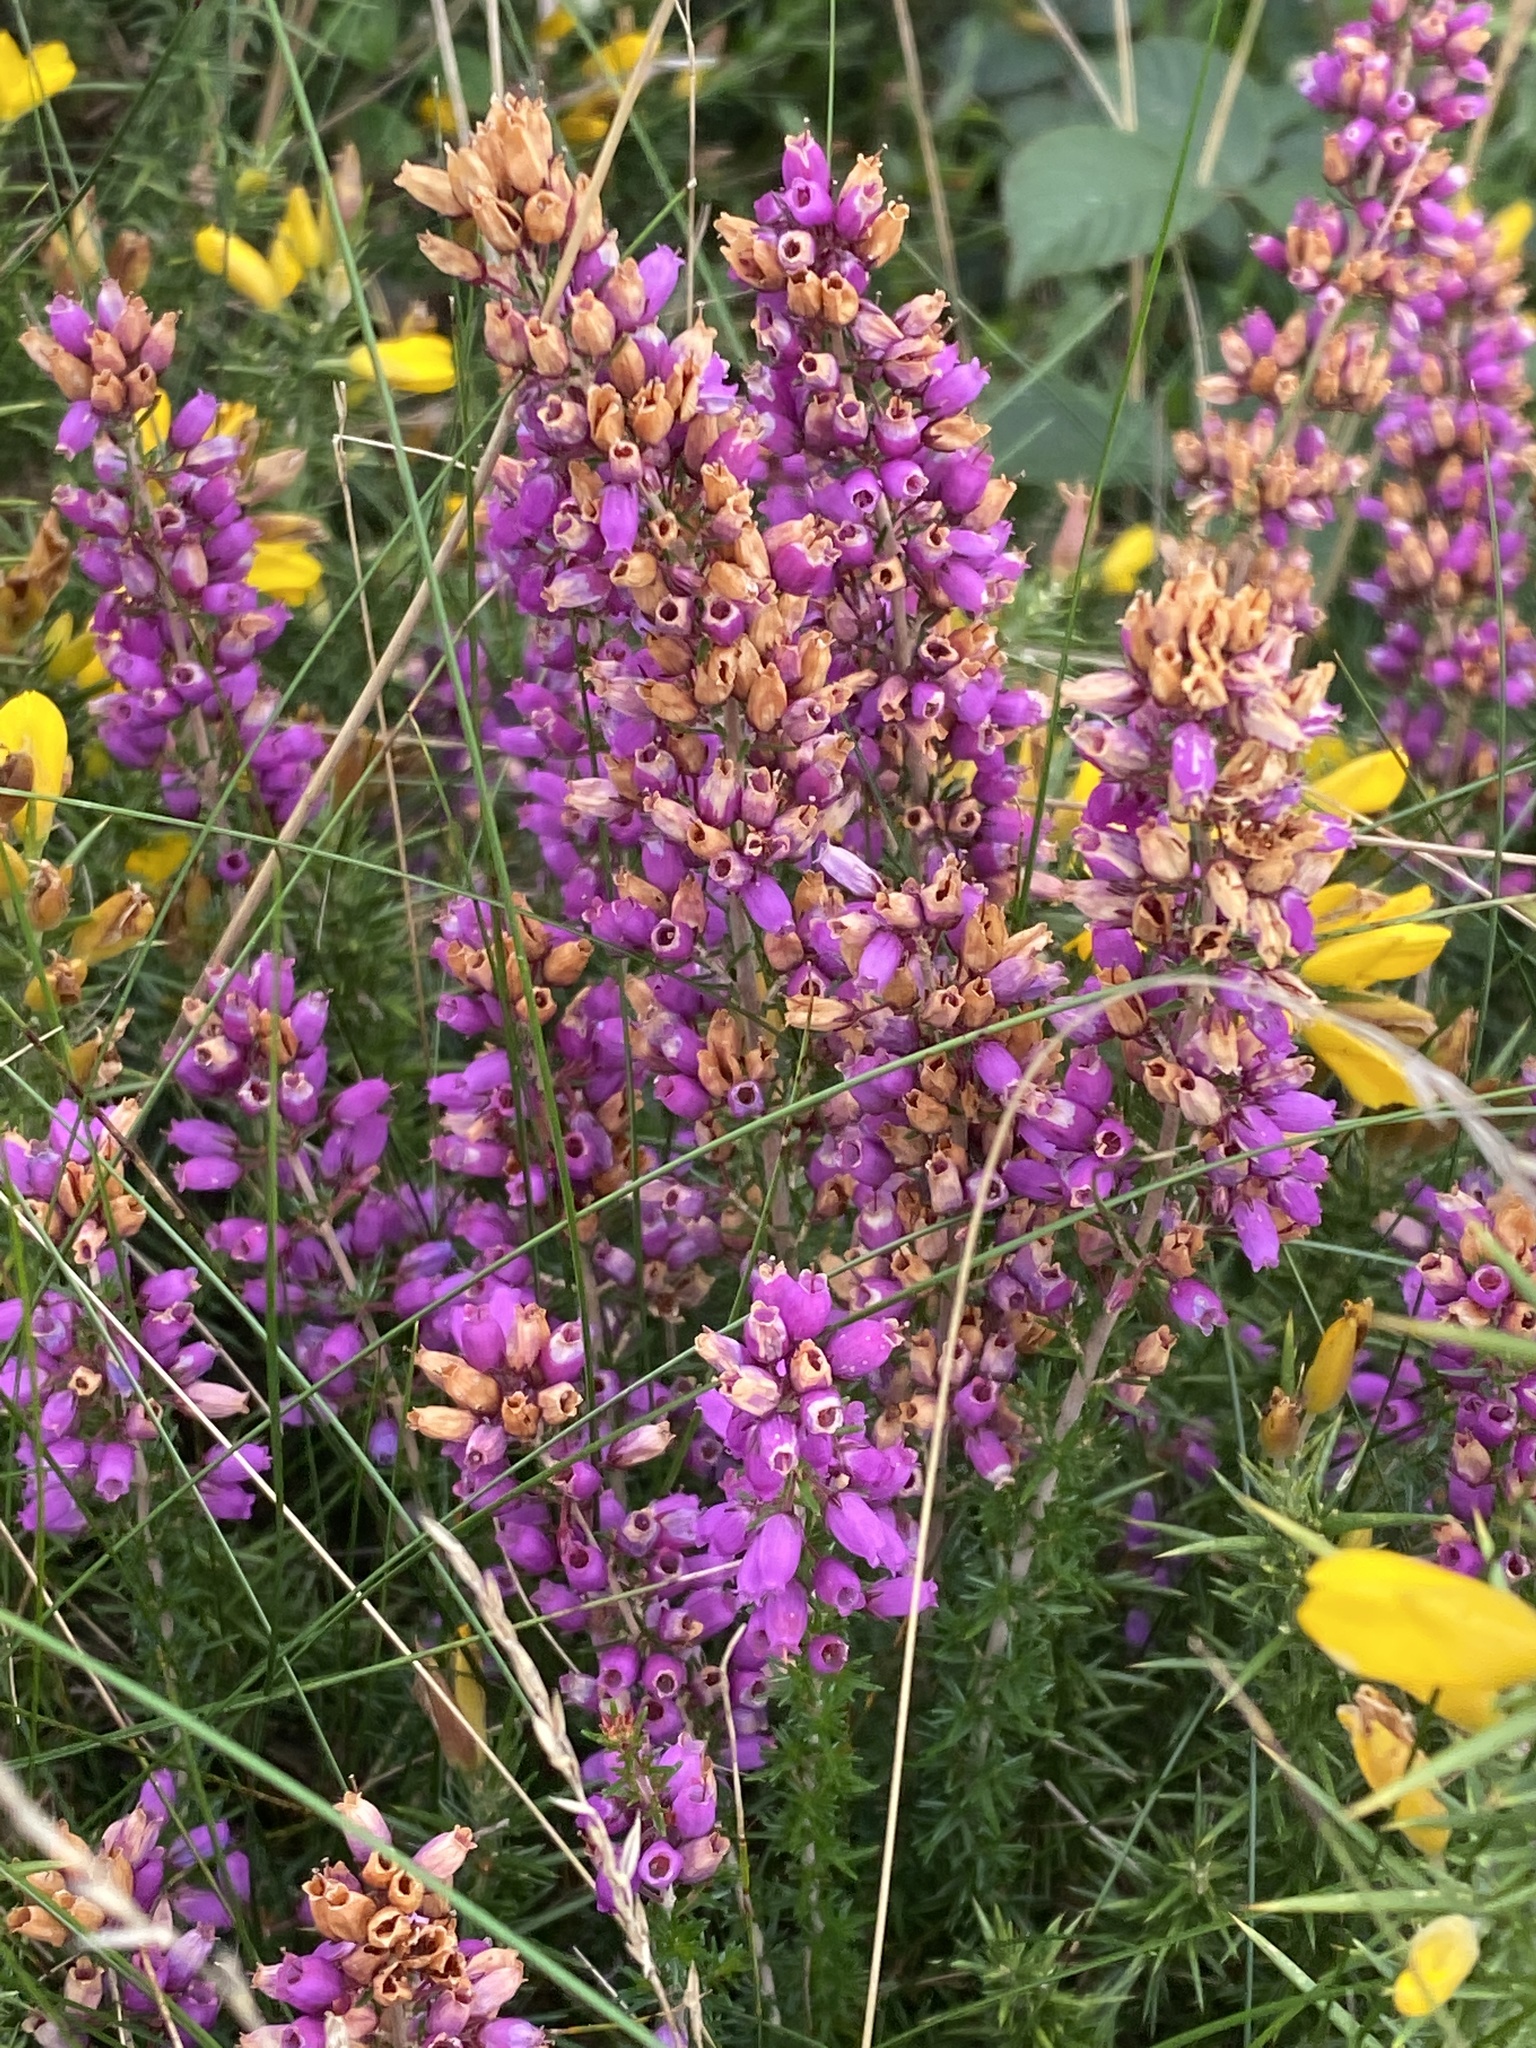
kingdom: Plantae
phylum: Tracheophyta
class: Magnoliopsida
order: Ericales
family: Ericaceae
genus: Erica
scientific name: Erica cinerea
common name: Bell heather
